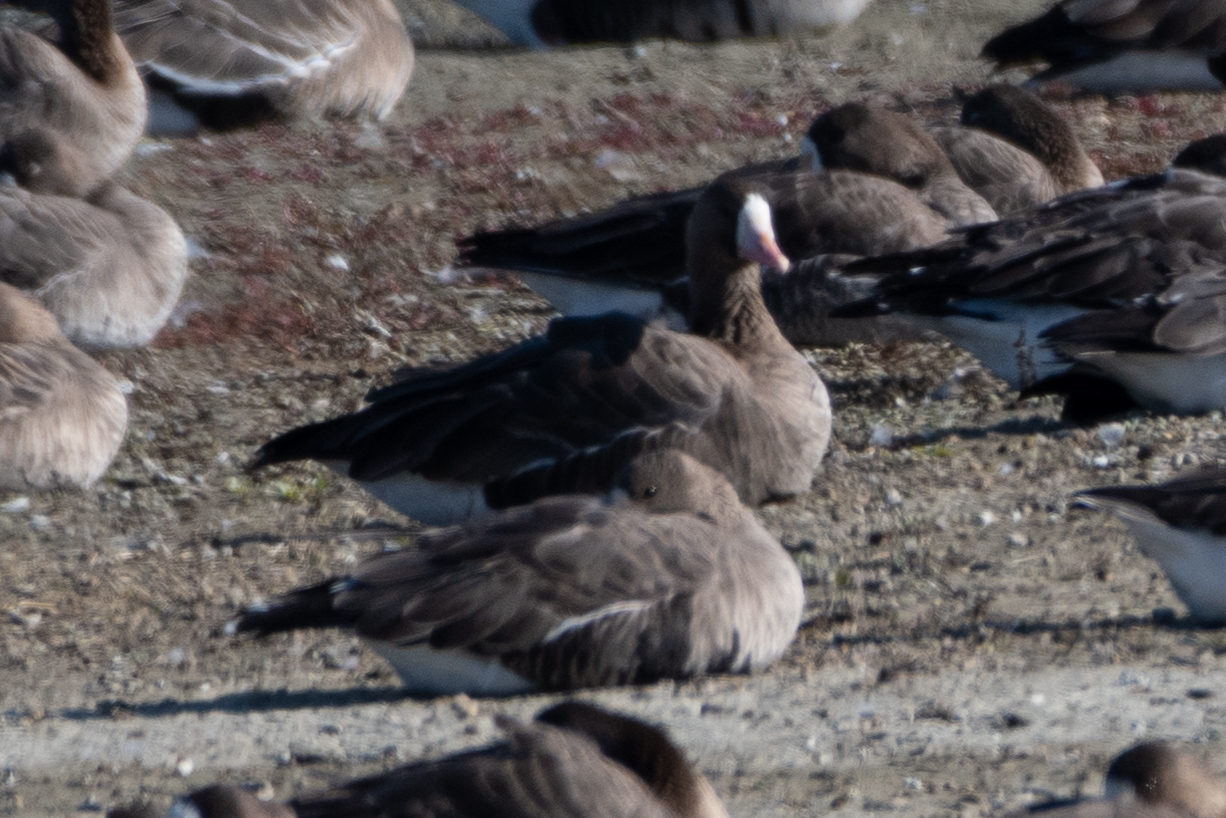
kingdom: Animalia
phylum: Chordata
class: Aves
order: Anseriformes
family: Anatidae
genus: Anser
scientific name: Anser albifrons
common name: Greater white-fronted goose
